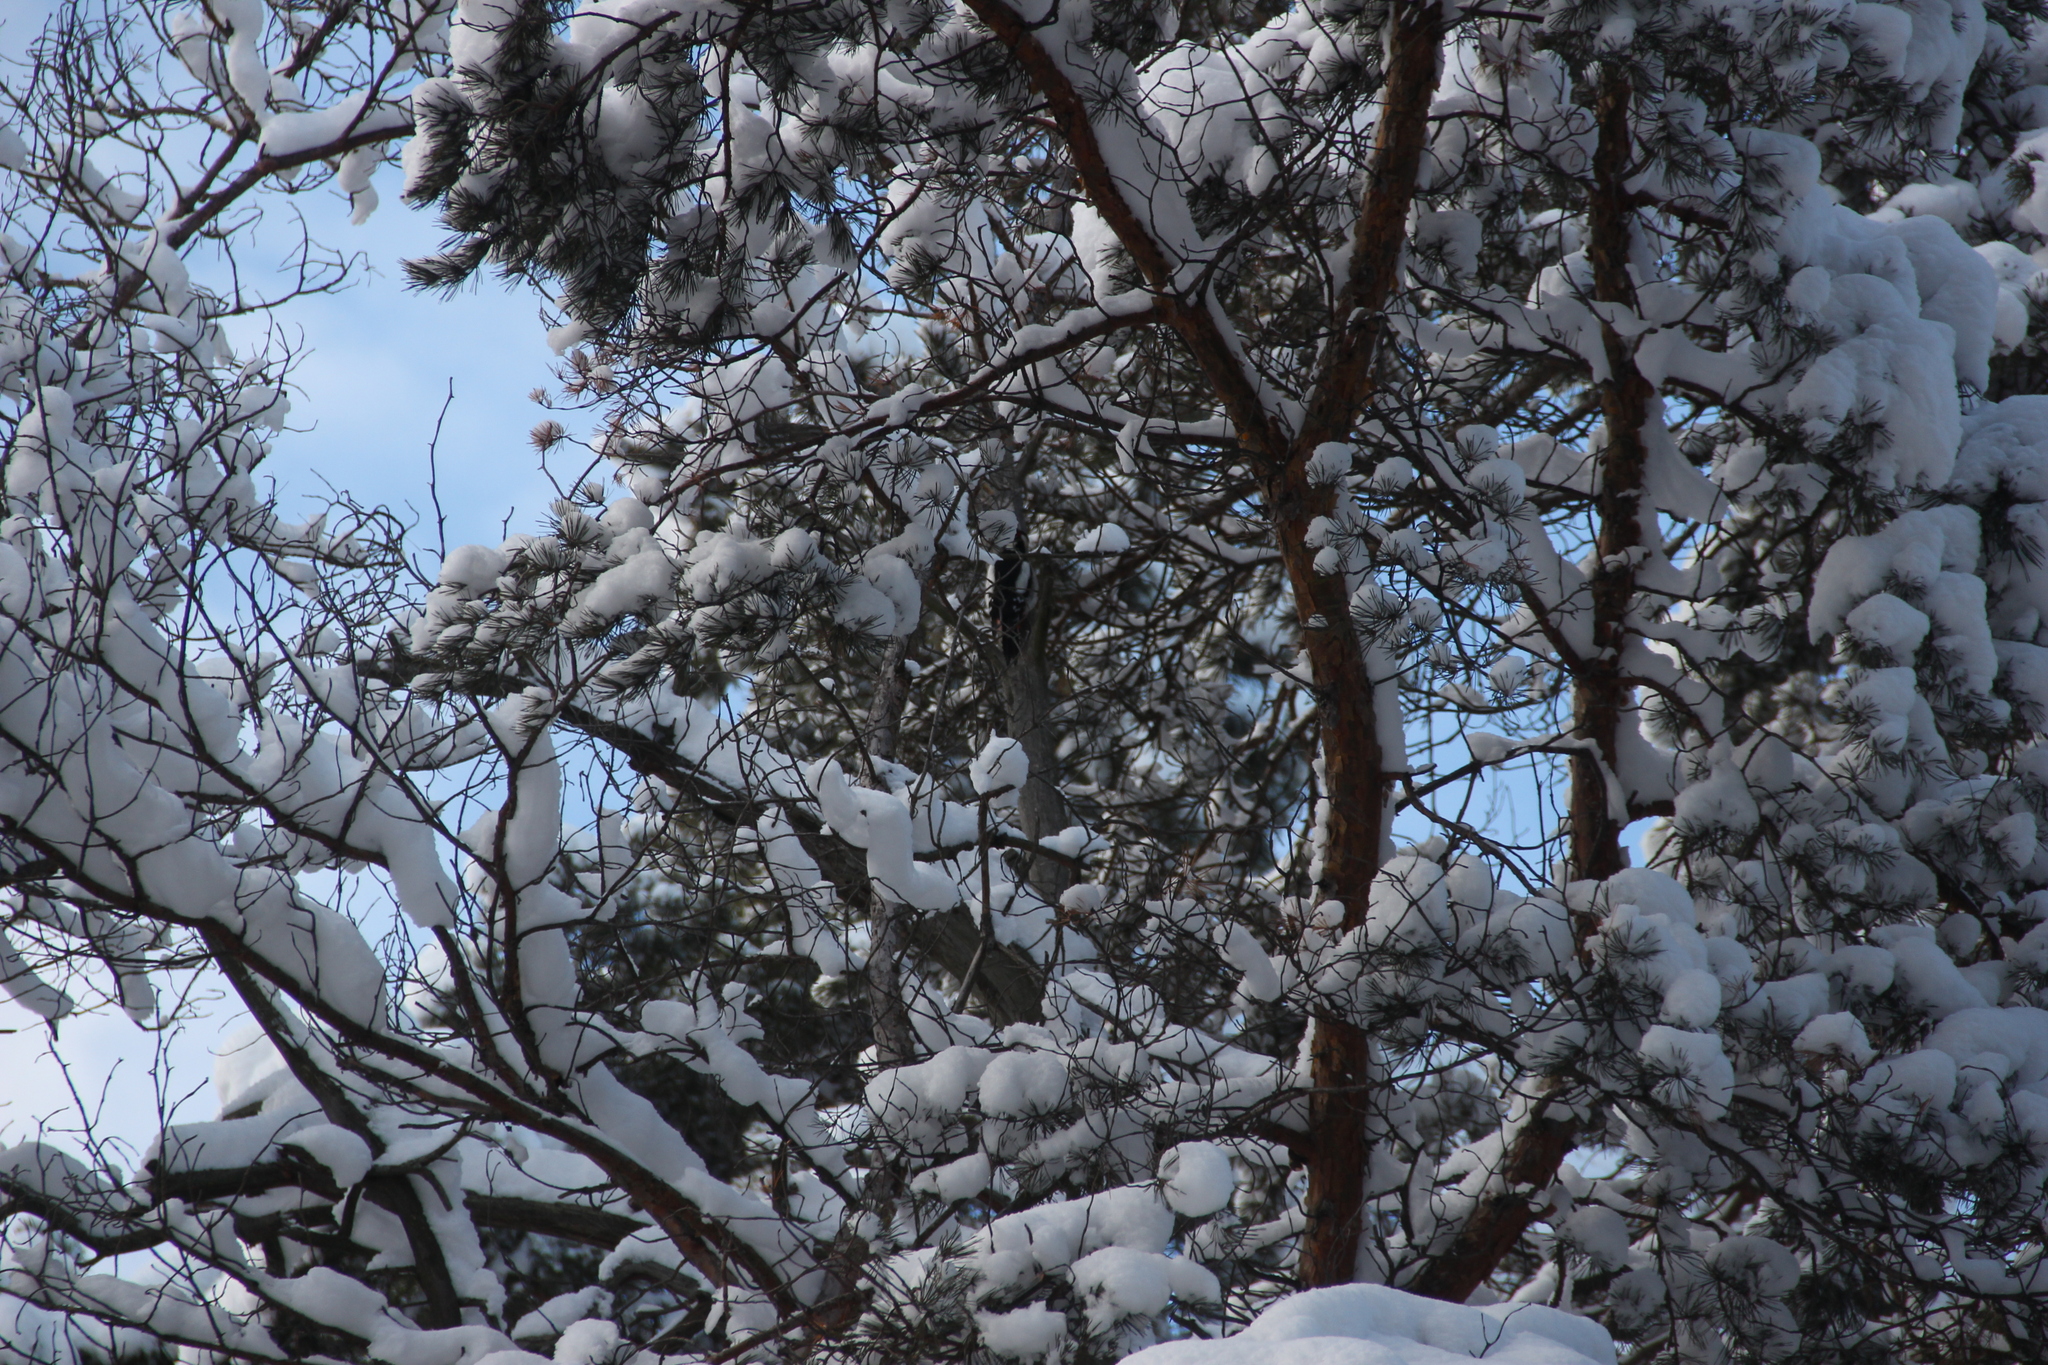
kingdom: Animalia
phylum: Chordata
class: Aves
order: Piciformes
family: Picidae
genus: Dendrocopos
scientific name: Dendrocopos major
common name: Great spotted woodpecker
